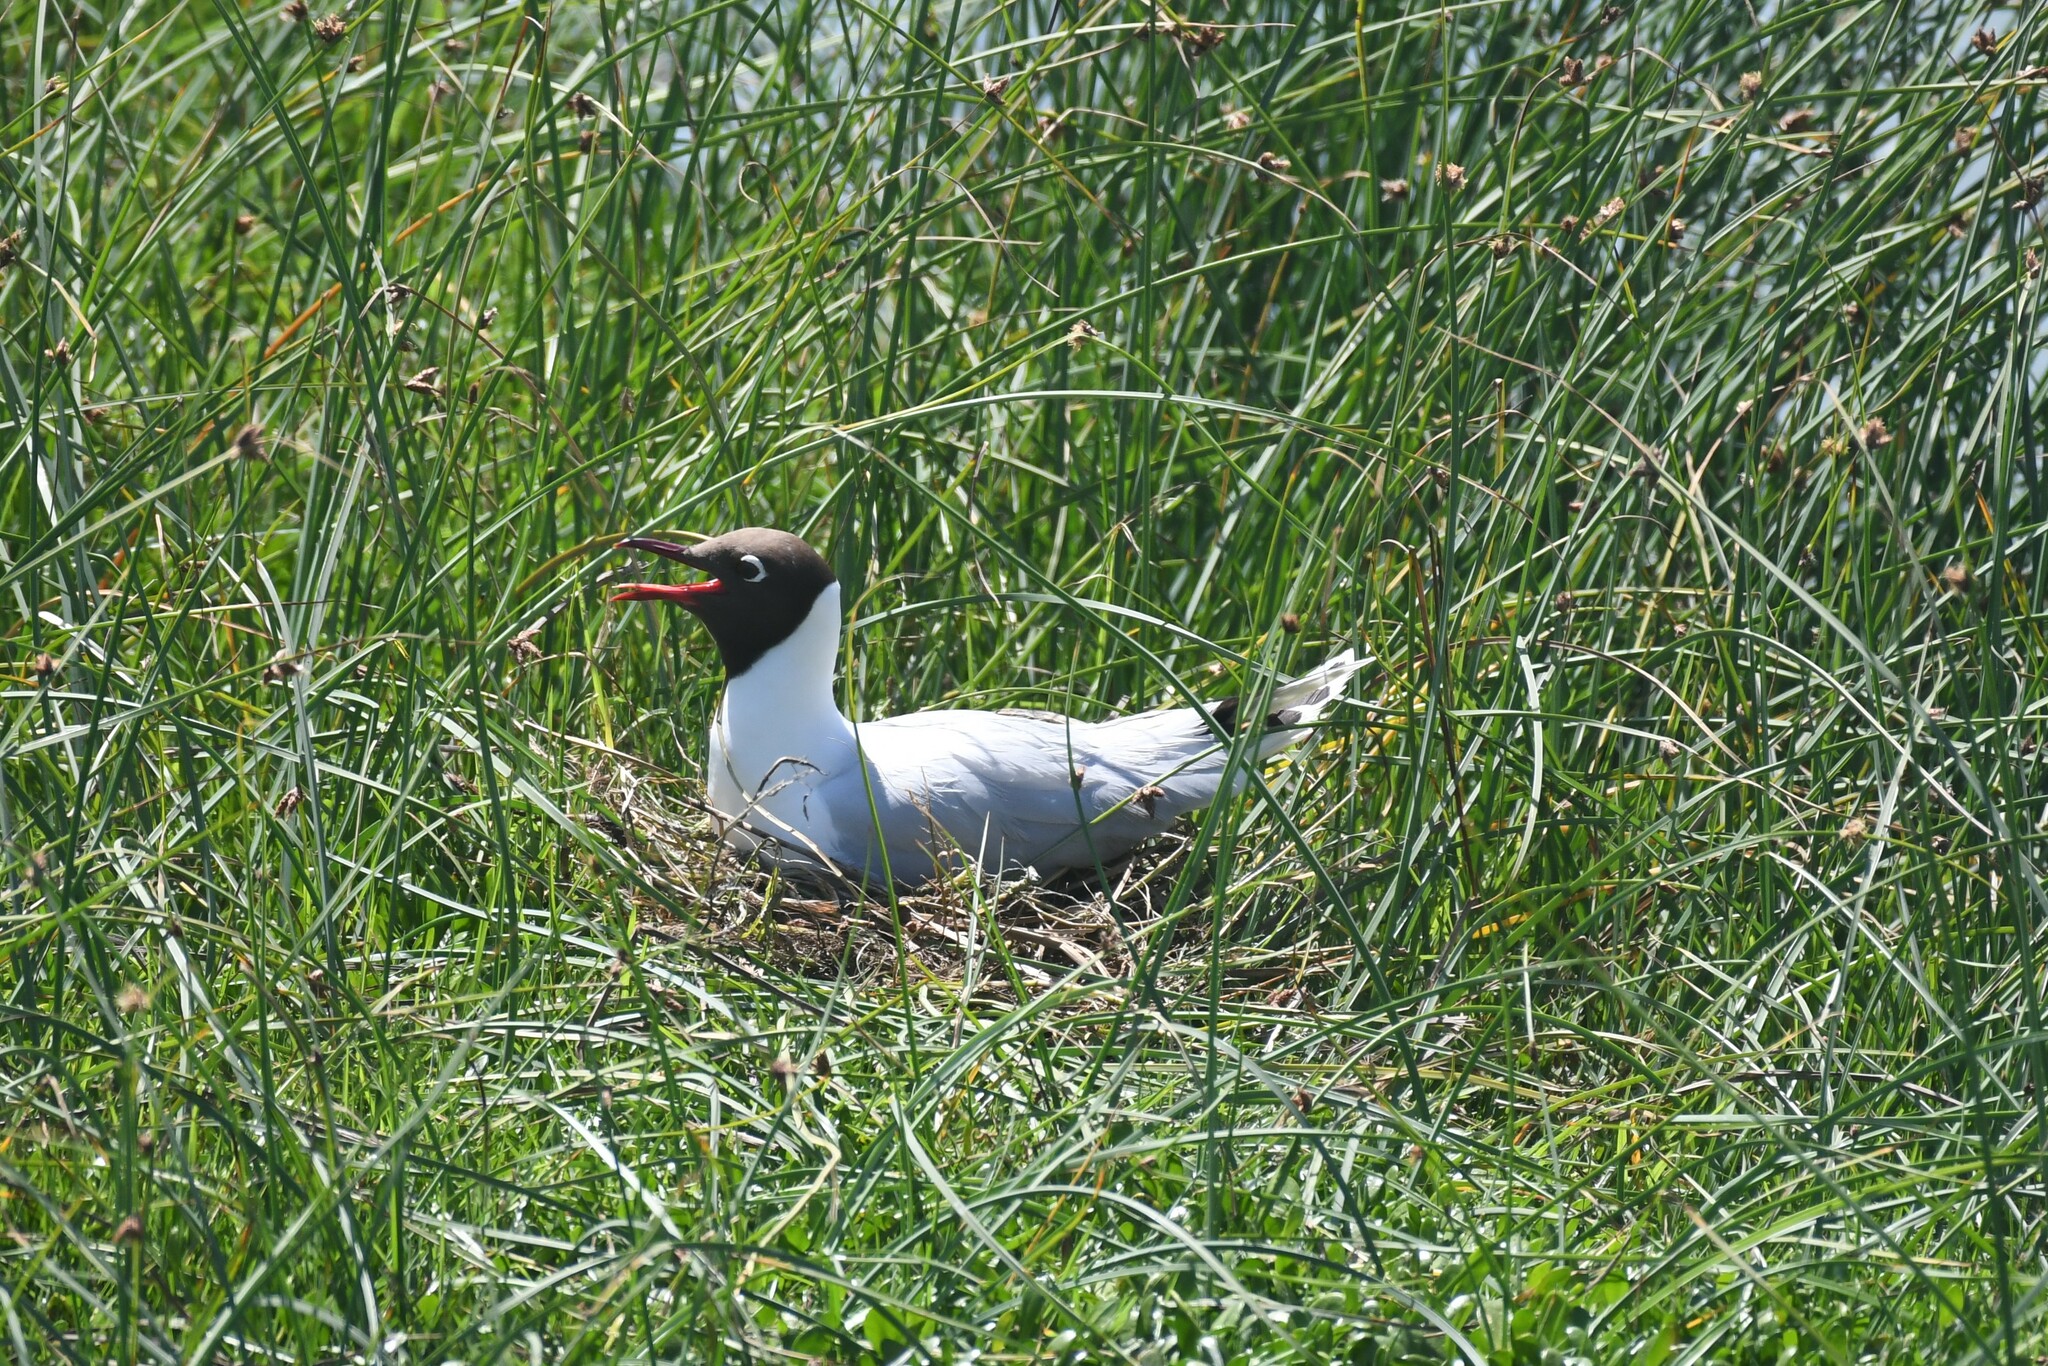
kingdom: Animalia
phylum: Chordata
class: Aves
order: Charadriiformes
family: Laridae
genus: Chroicocephalus
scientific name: Chroicocephalus maculipennis
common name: Brown-hooded gull
